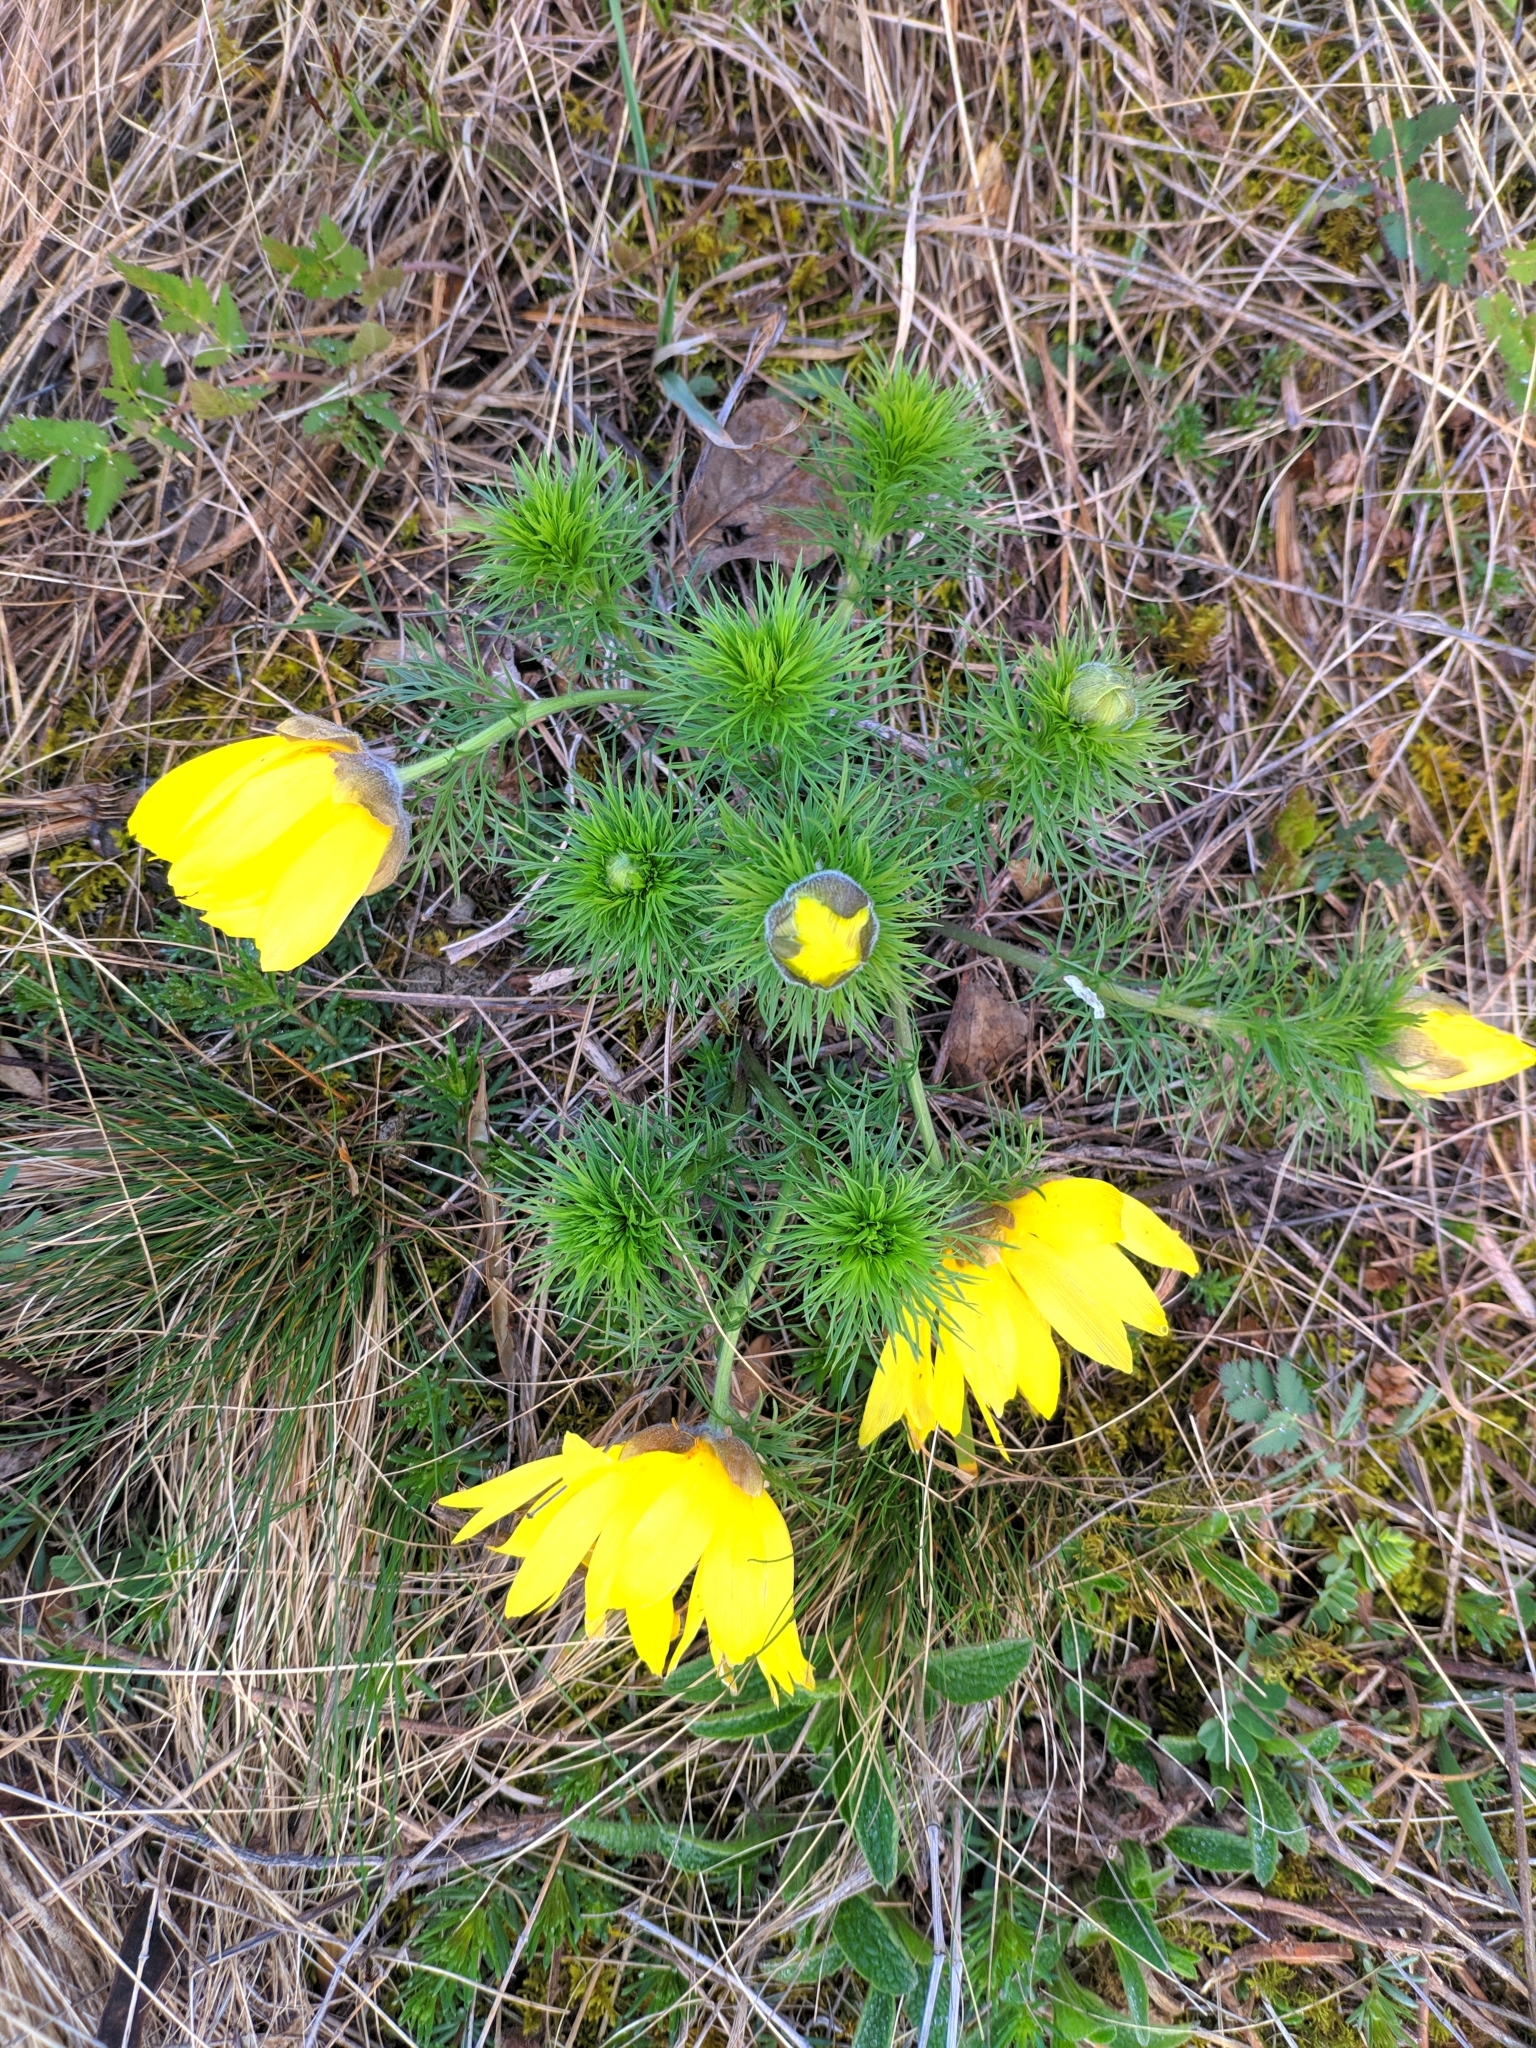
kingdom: Plantae
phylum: Tracheophyta
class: Magnoliopsida
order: Ranunculales
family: Ranunculaceae
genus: Adonis
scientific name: Adonis vernalis
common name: Yellow pheasants-eye
